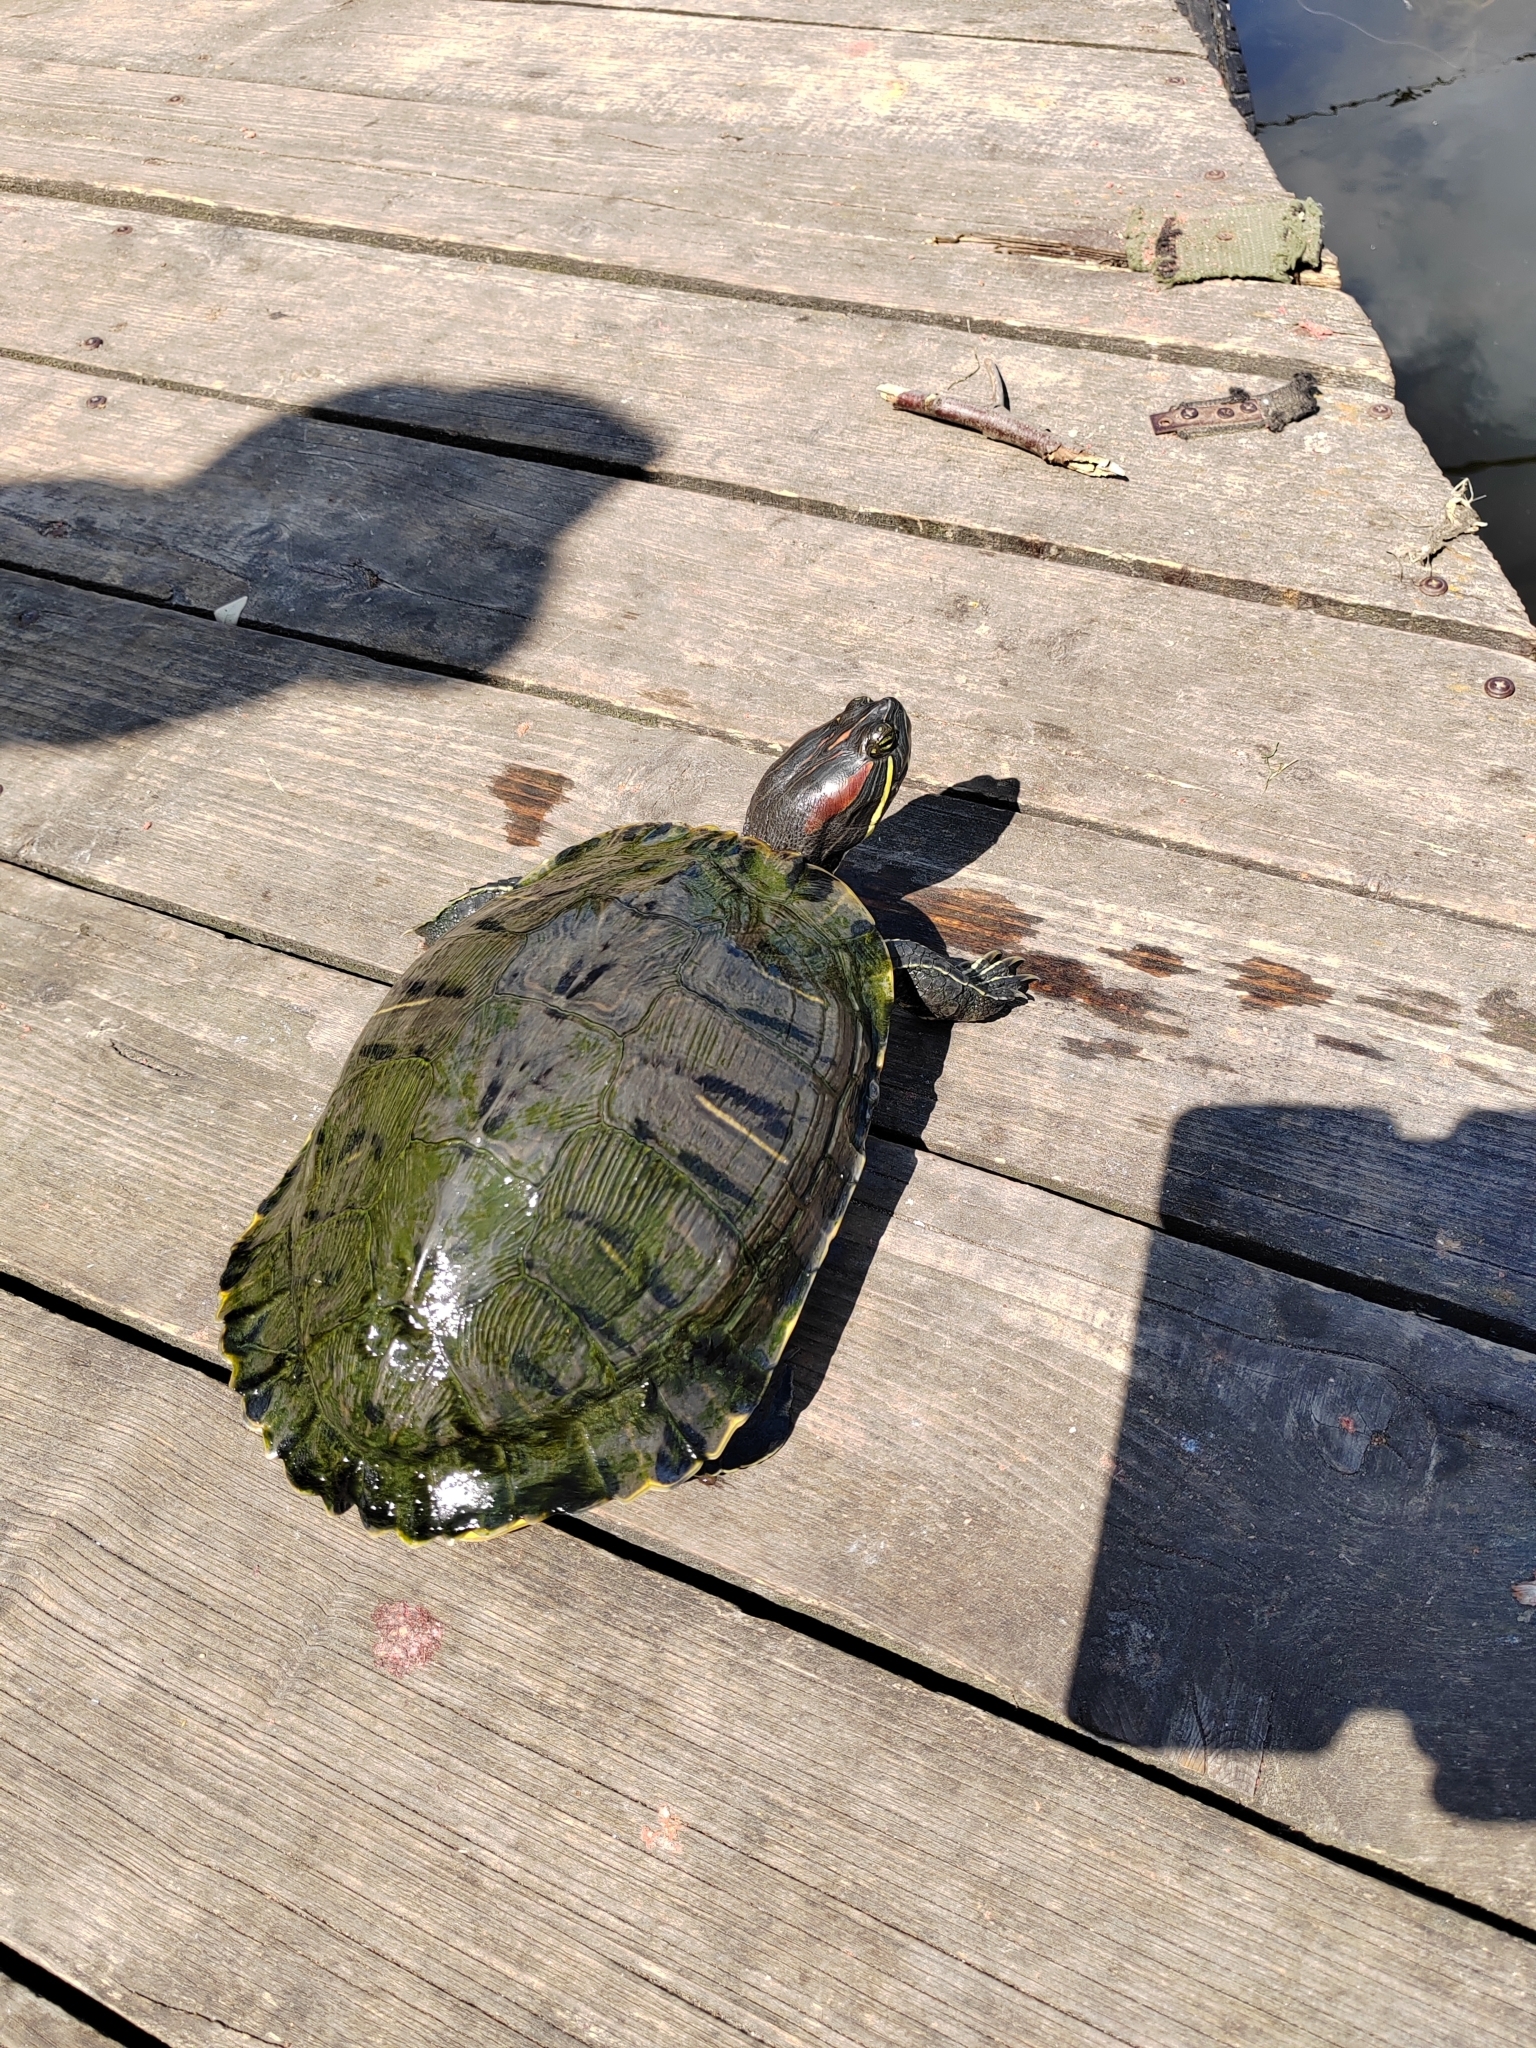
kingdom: Animalia
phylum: Chordata
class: Testudines
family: Emydidae
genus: Trachemys
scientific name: Trachemys scripta
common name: Slider
